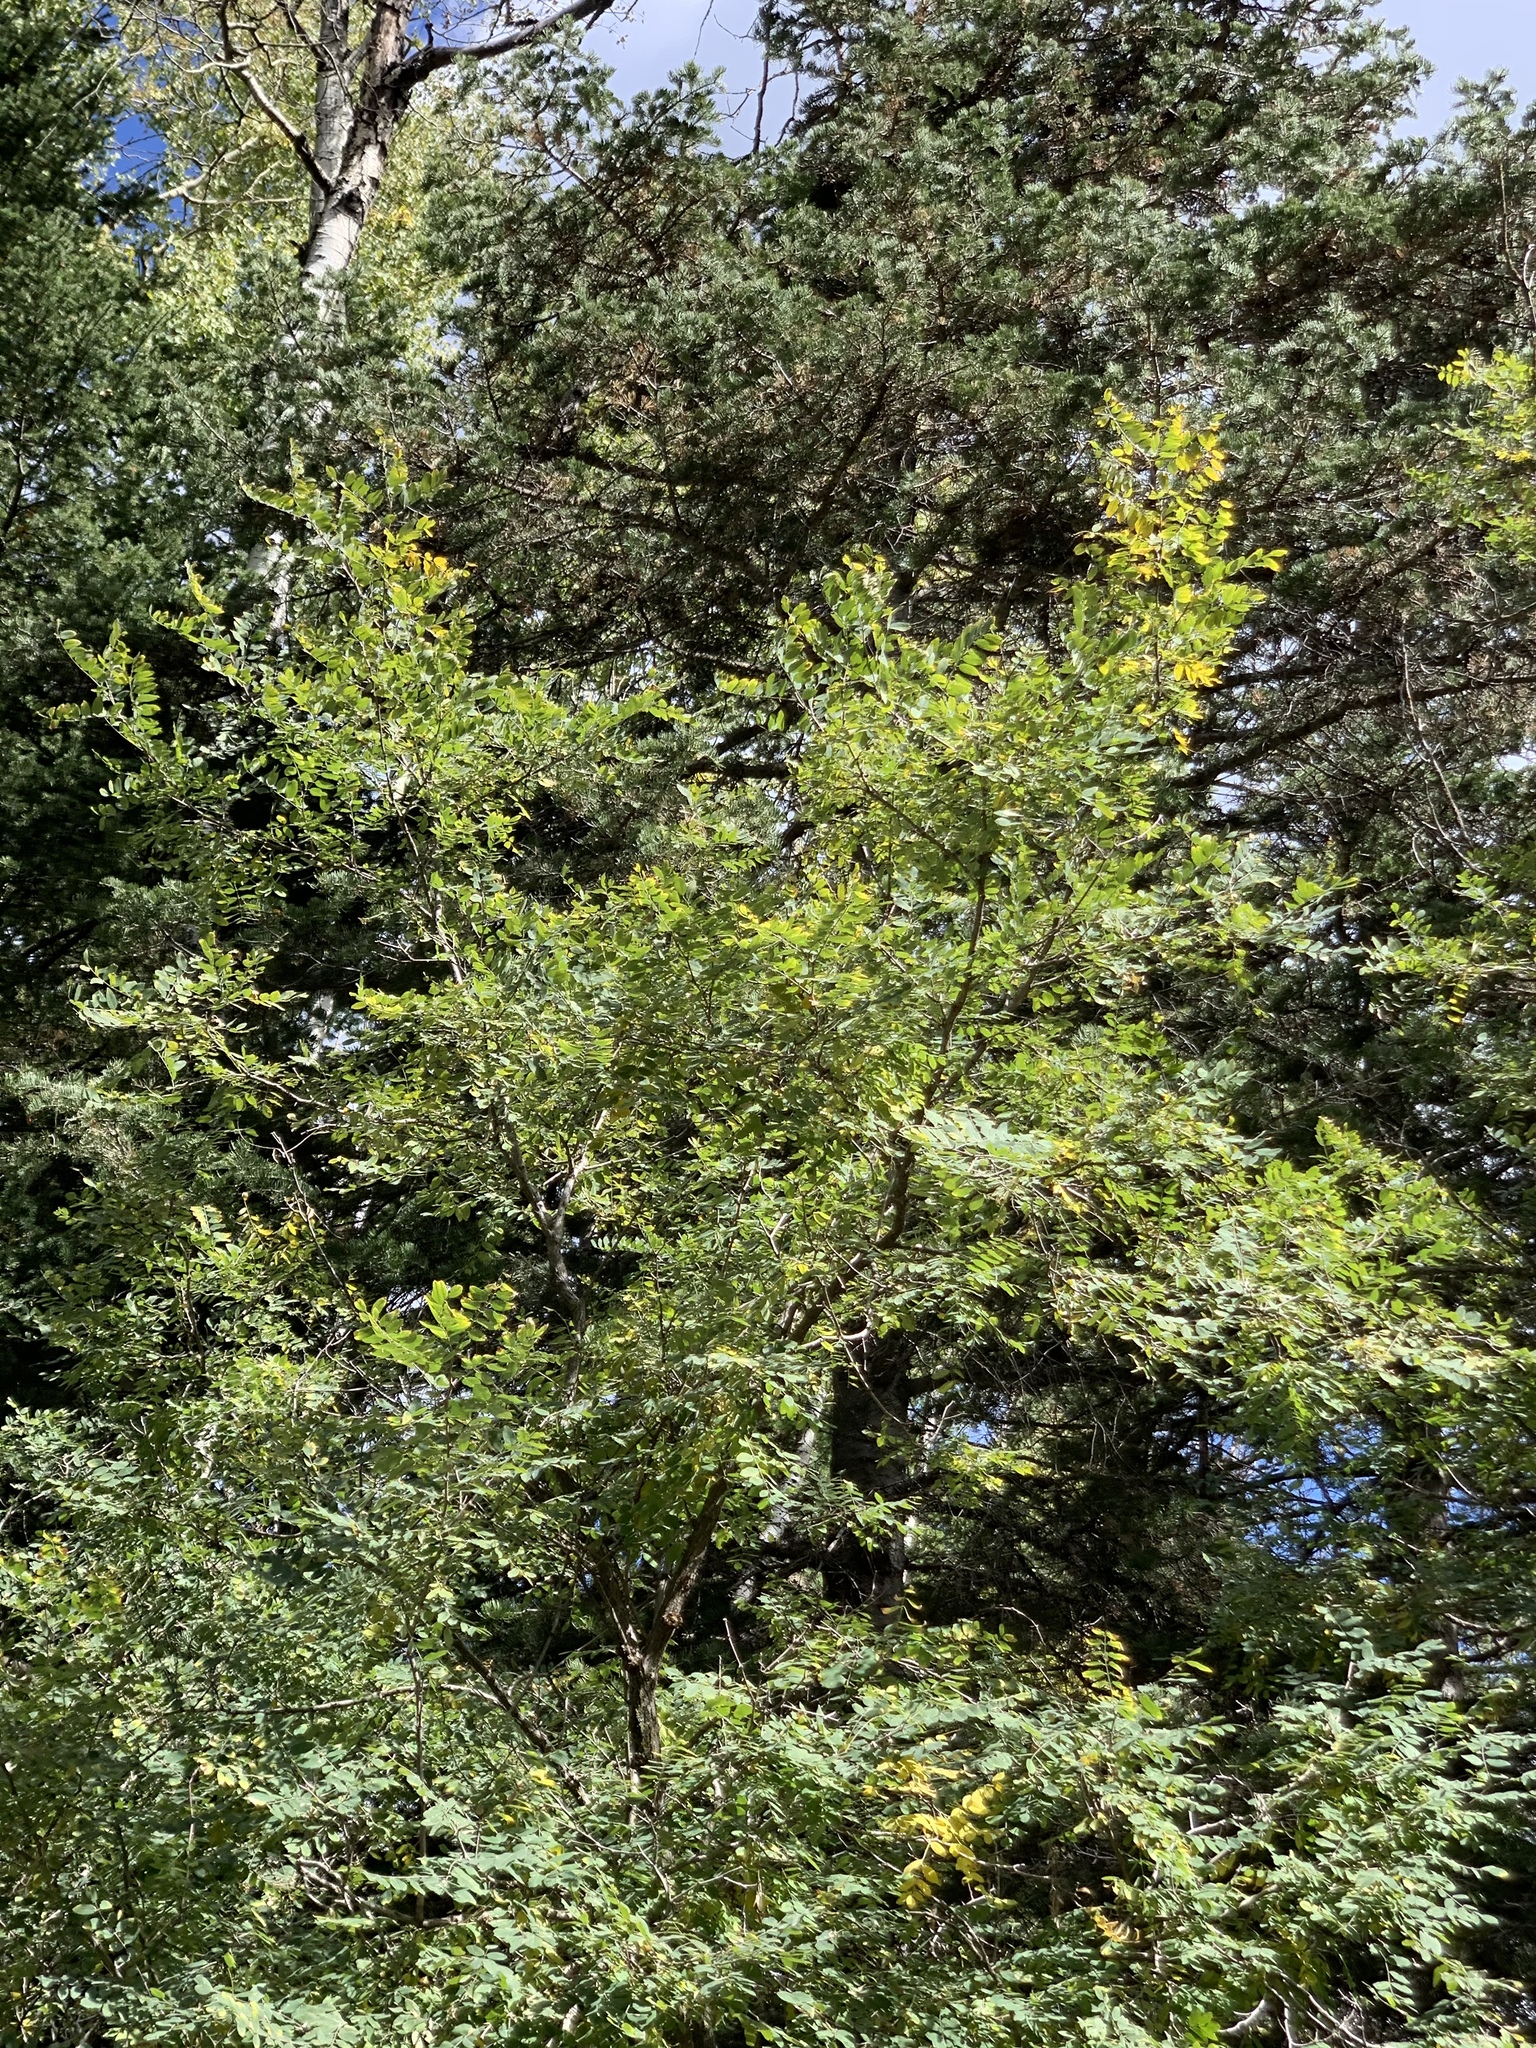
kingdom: Plantae
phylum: Tracheophyta
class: Magnoliopsida
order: Fabales
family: Fabaceae
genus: Robinia
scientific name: Robinia neomexicana
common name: New mexico locust
